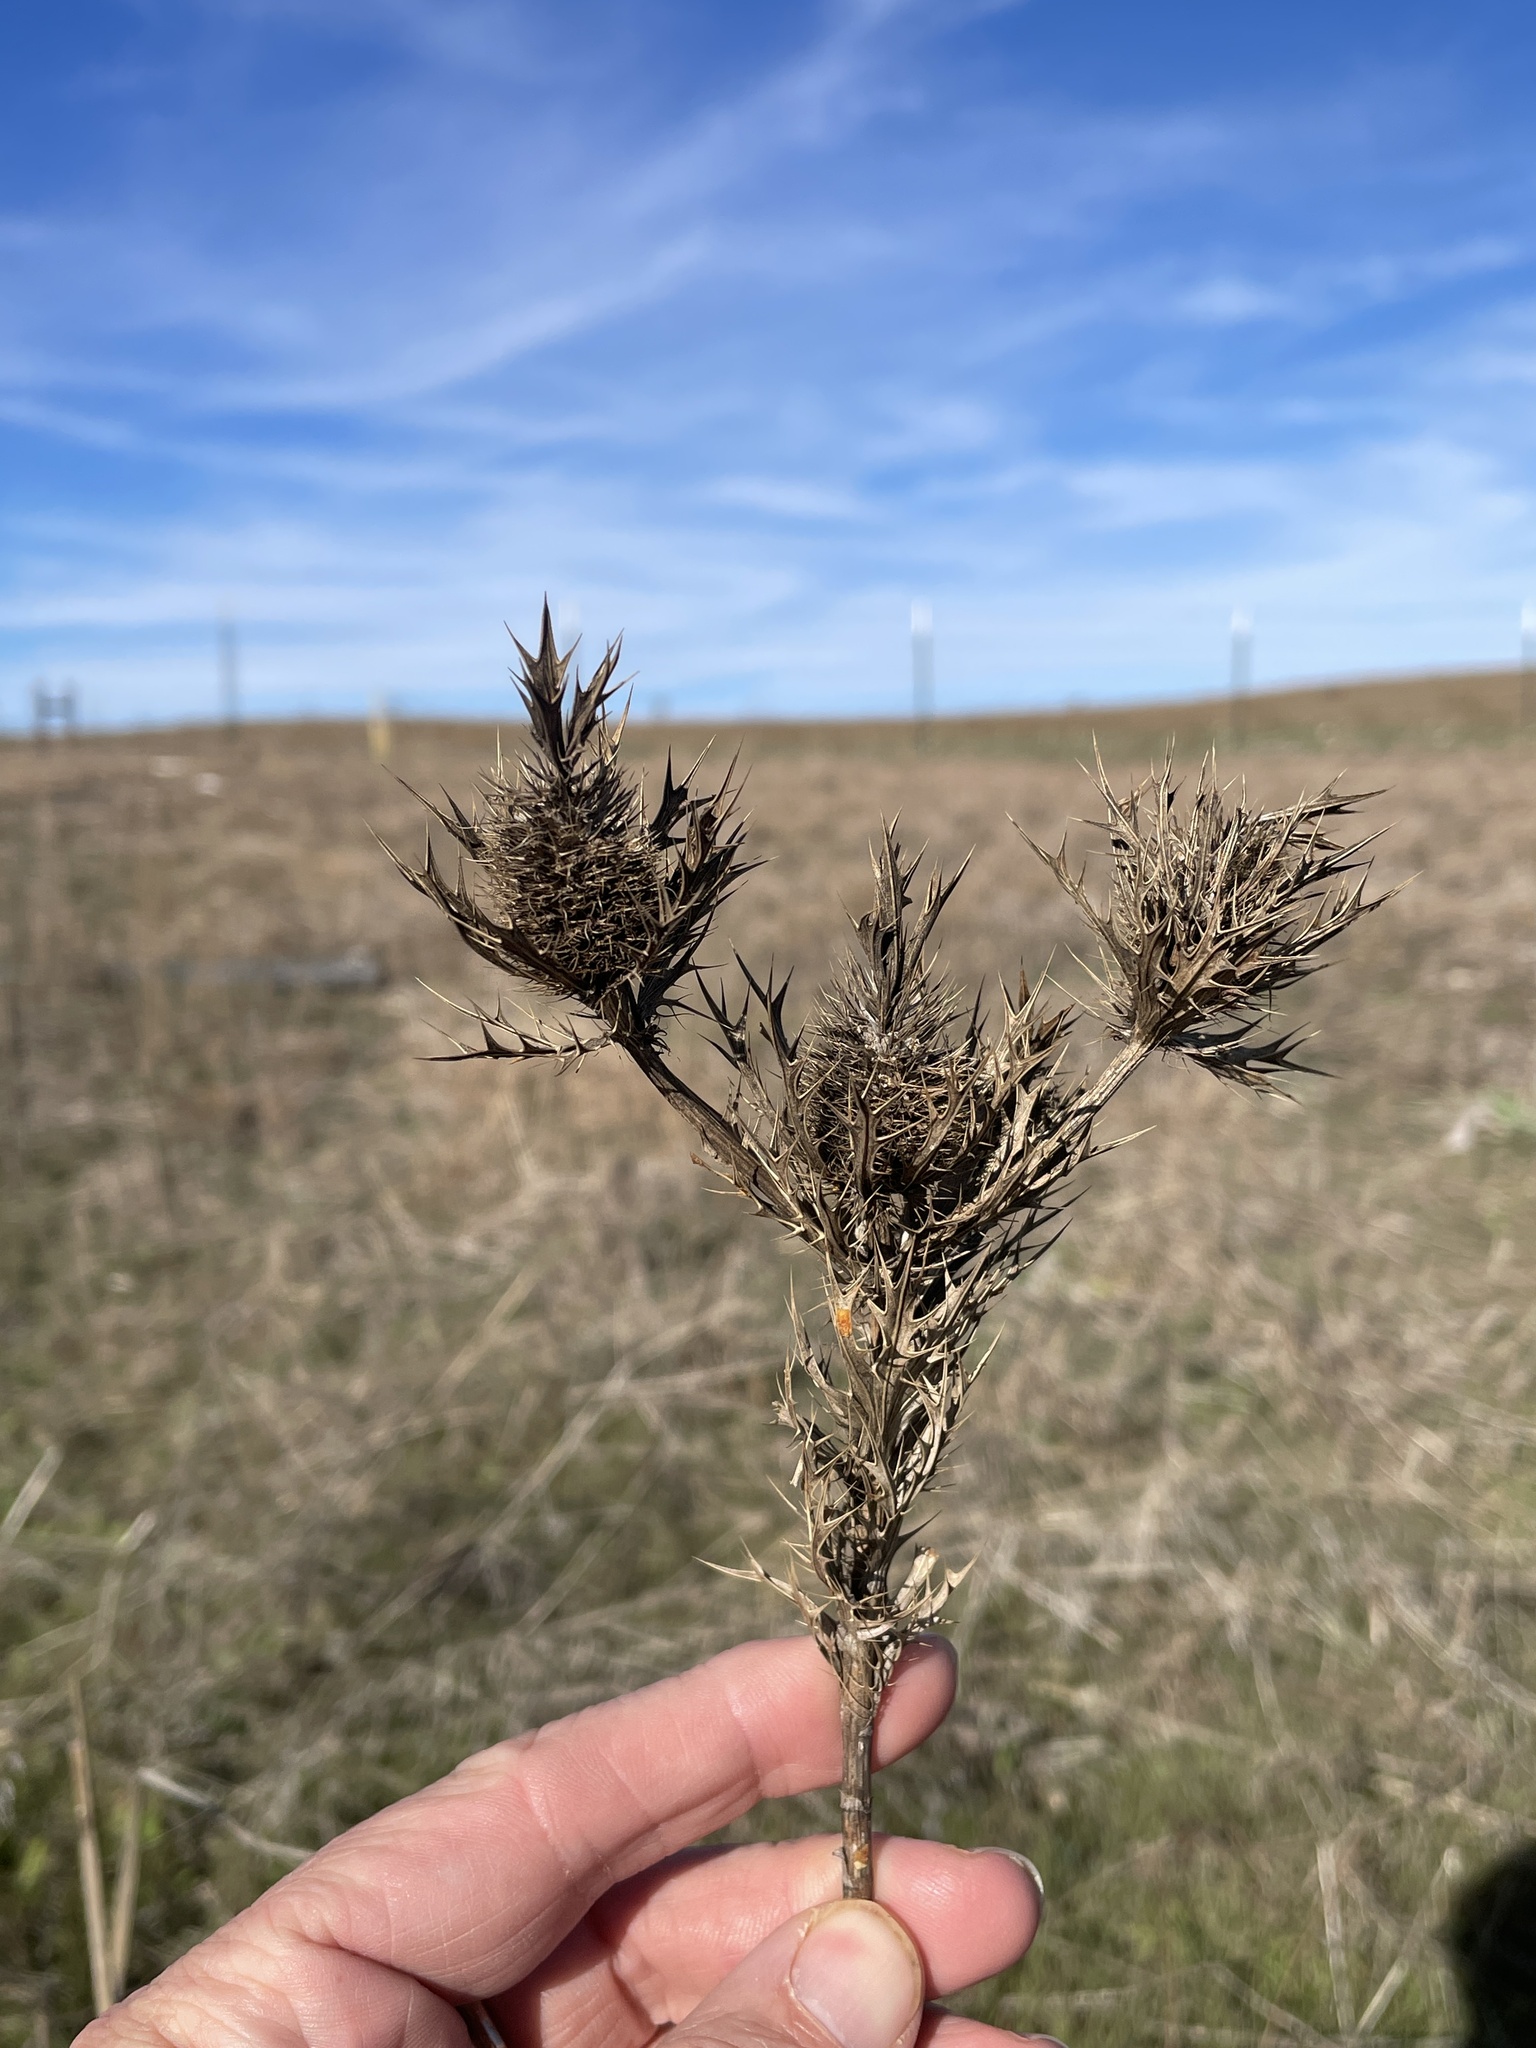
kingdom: Plantae
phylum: Tracheophyta
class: Magnoliopsida
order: Apiales
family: Apiaceae
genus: Eryngium
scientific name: Eryngium leavenworthii
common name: Leavenworth's eryngo
